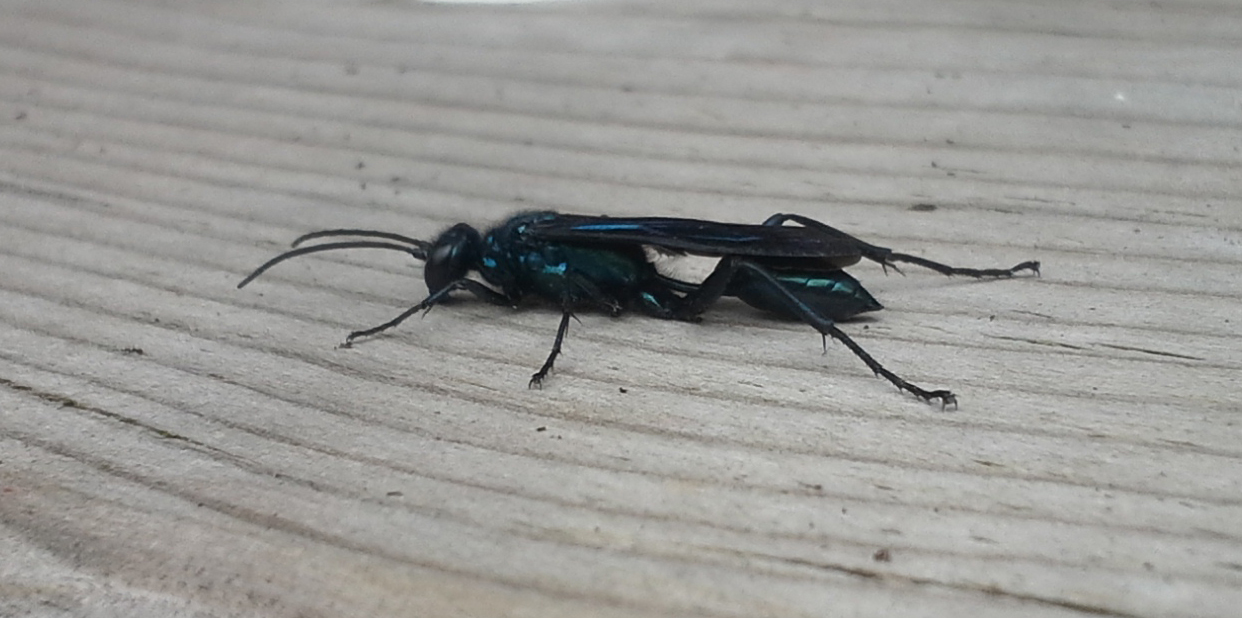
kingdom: Animalia
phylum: Arthropoda
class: Insecta
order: Hymenoptera
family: Sphecidae
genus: Chalybion
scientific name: Chalybion californicum
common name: Mud dauber
